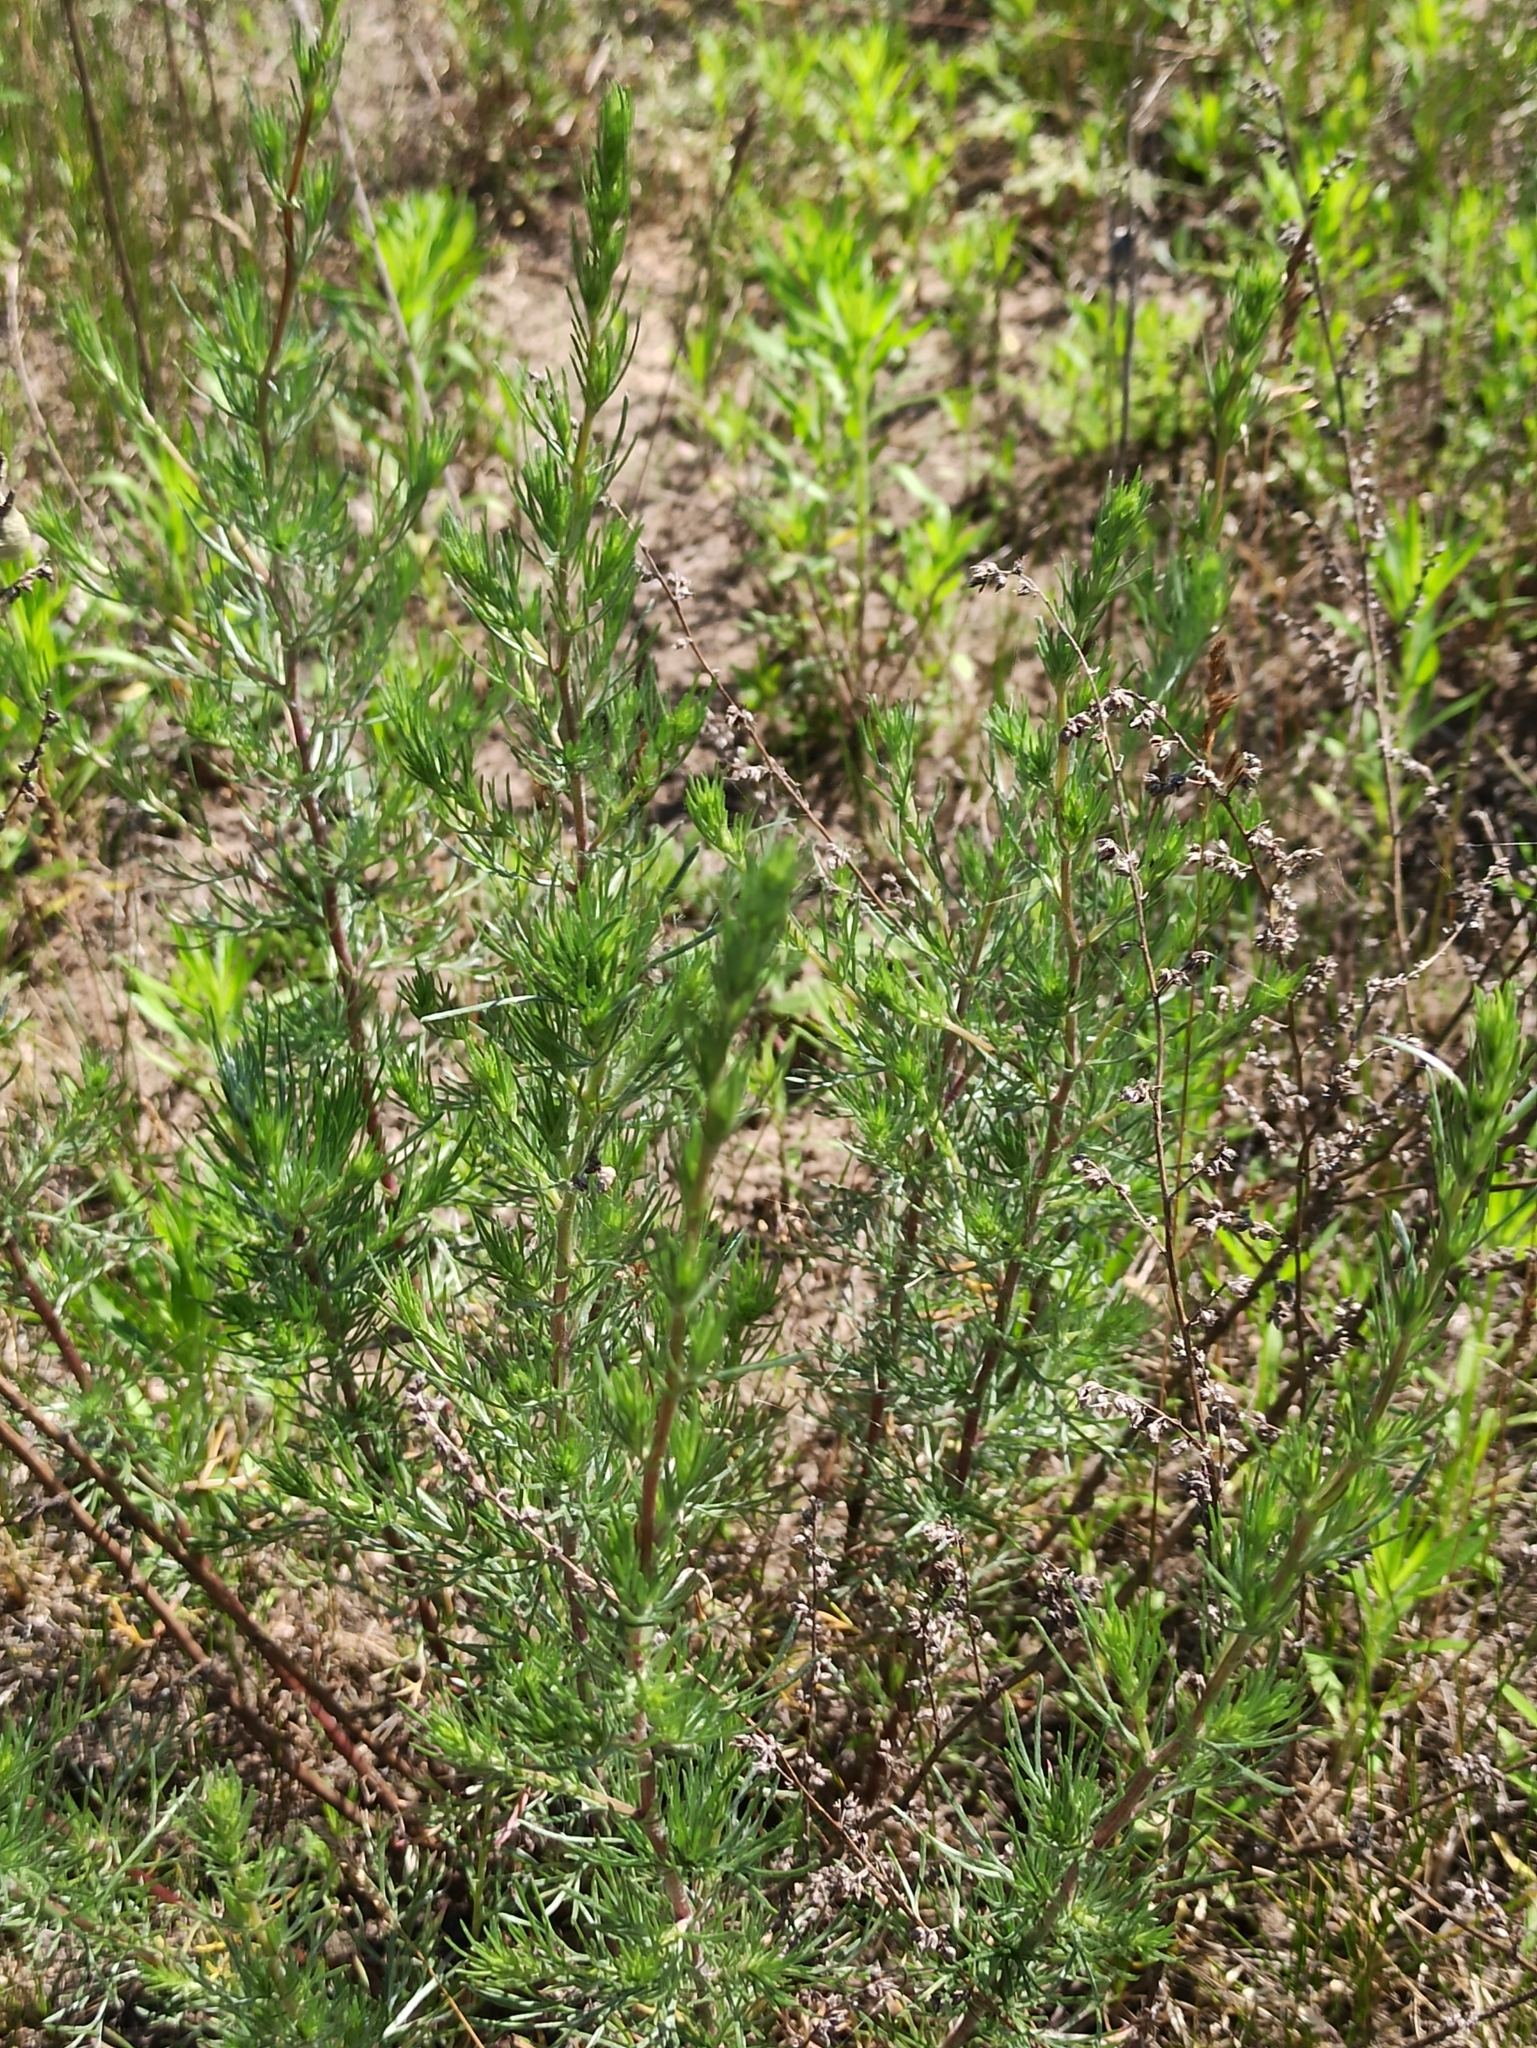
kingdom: Plantae
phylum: Tracheophyta
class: Magnoliopsida
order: Asterales
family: Asteraceae
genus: Artemisia
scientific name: Artemisia campestris
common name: Field wormwood
